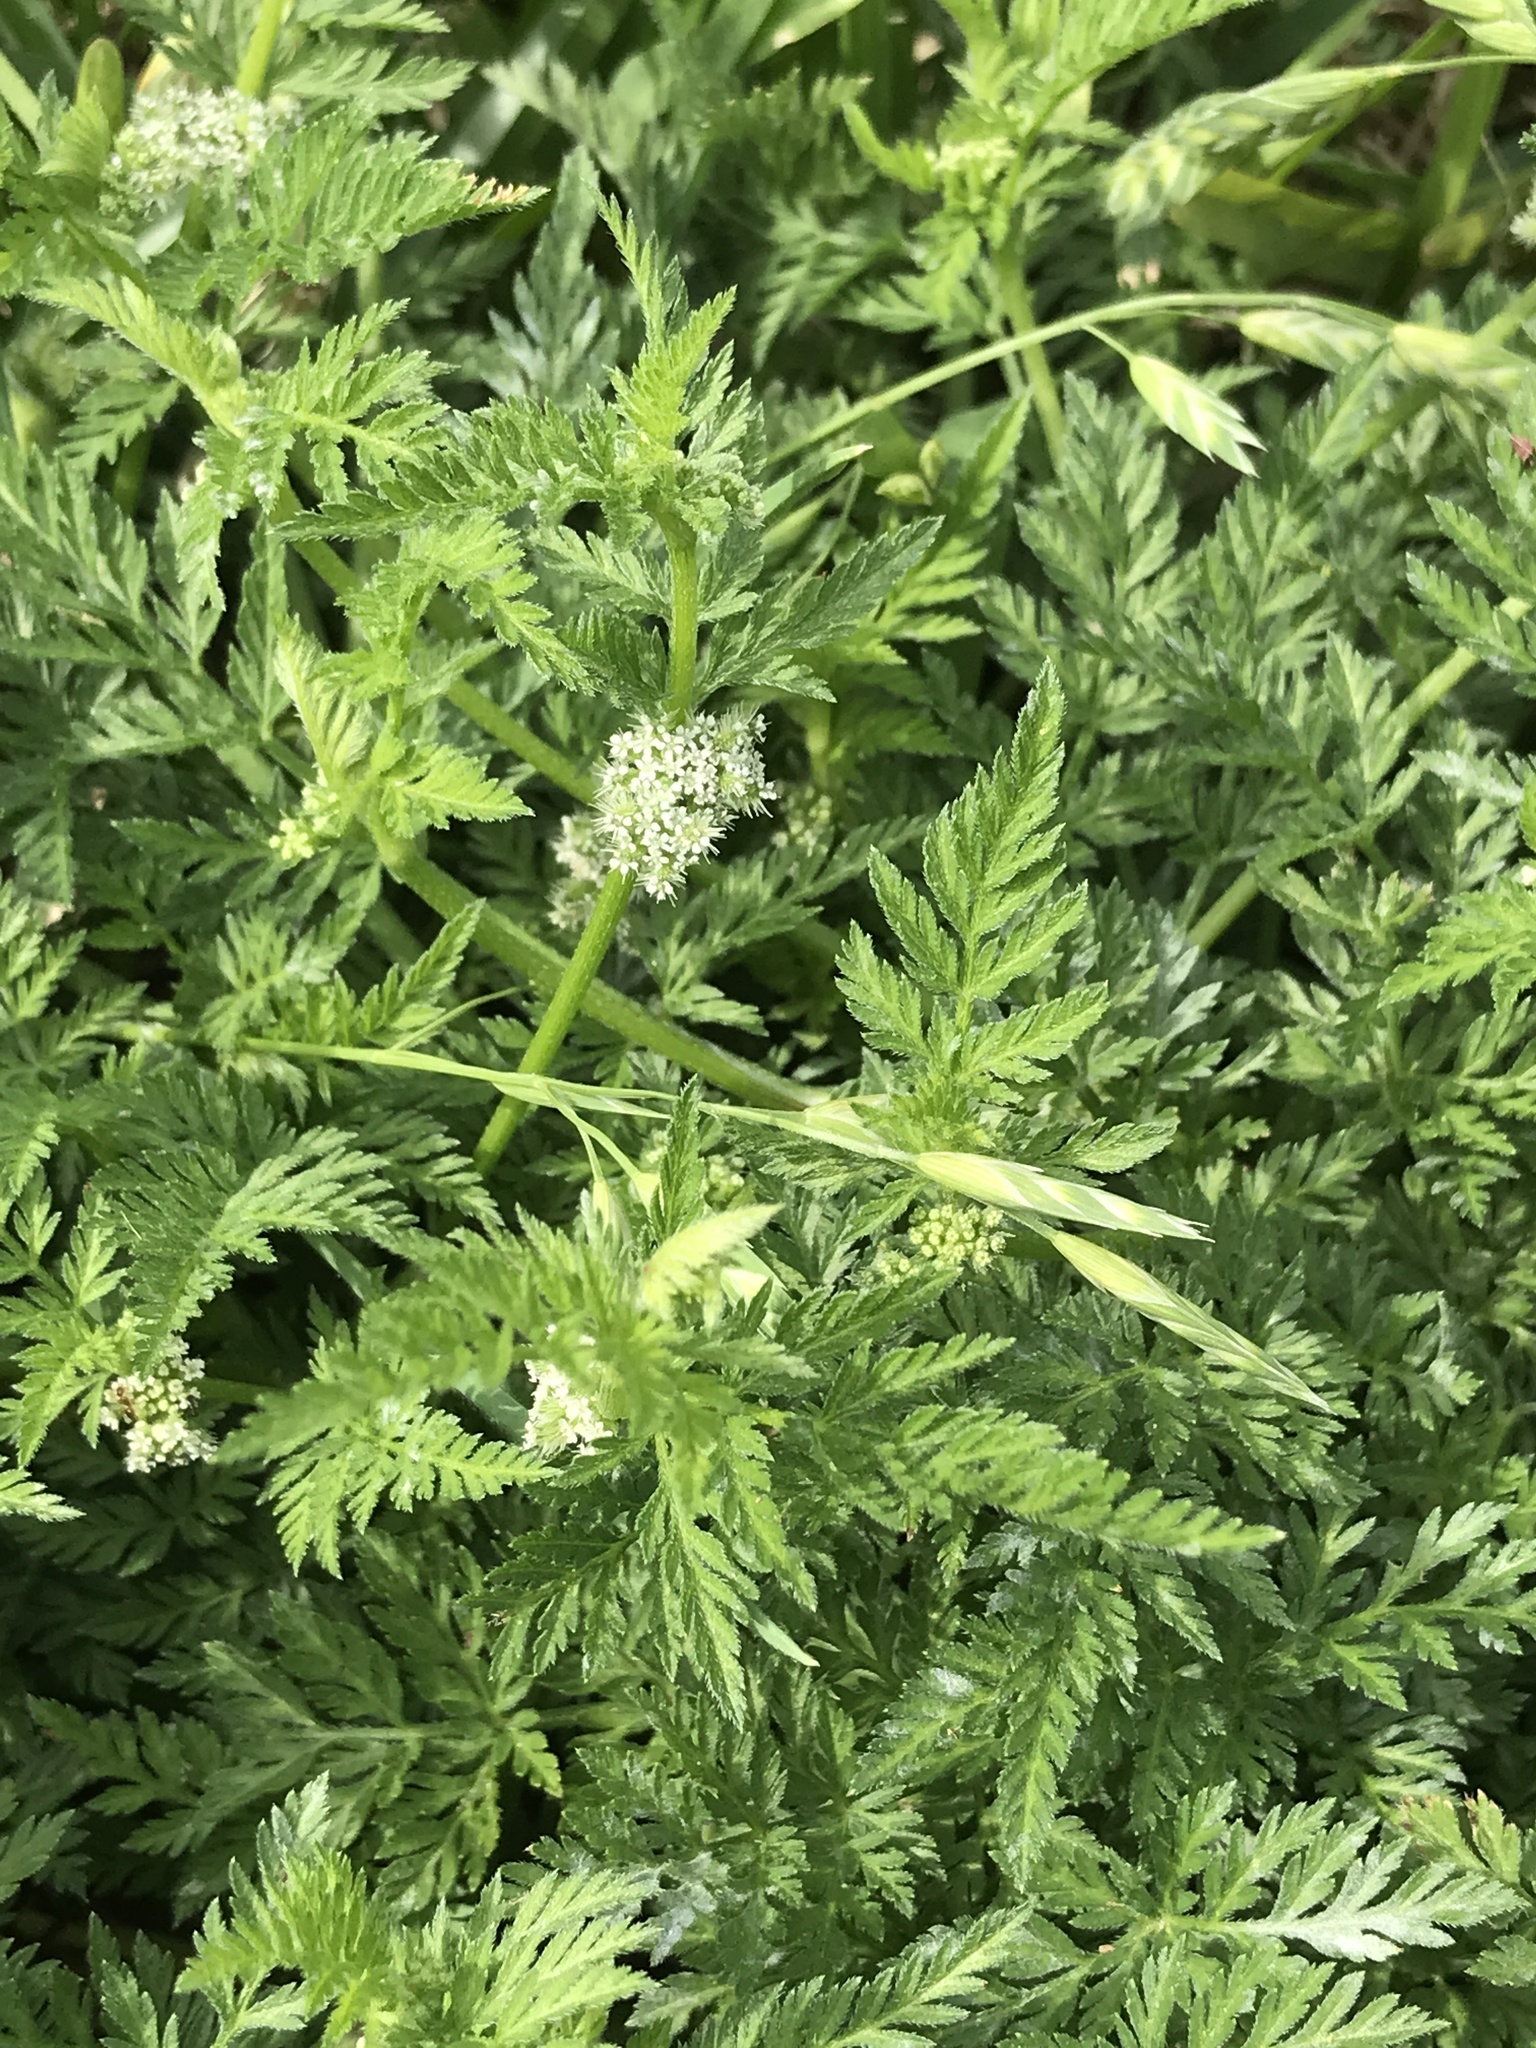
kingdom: Plantae
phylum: Tracheophyta
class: Magnoliopsida
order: Apiales
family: Apiaceae
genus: Torilis
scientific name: Torilis nodosa
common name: Knotted hedge-parsley
